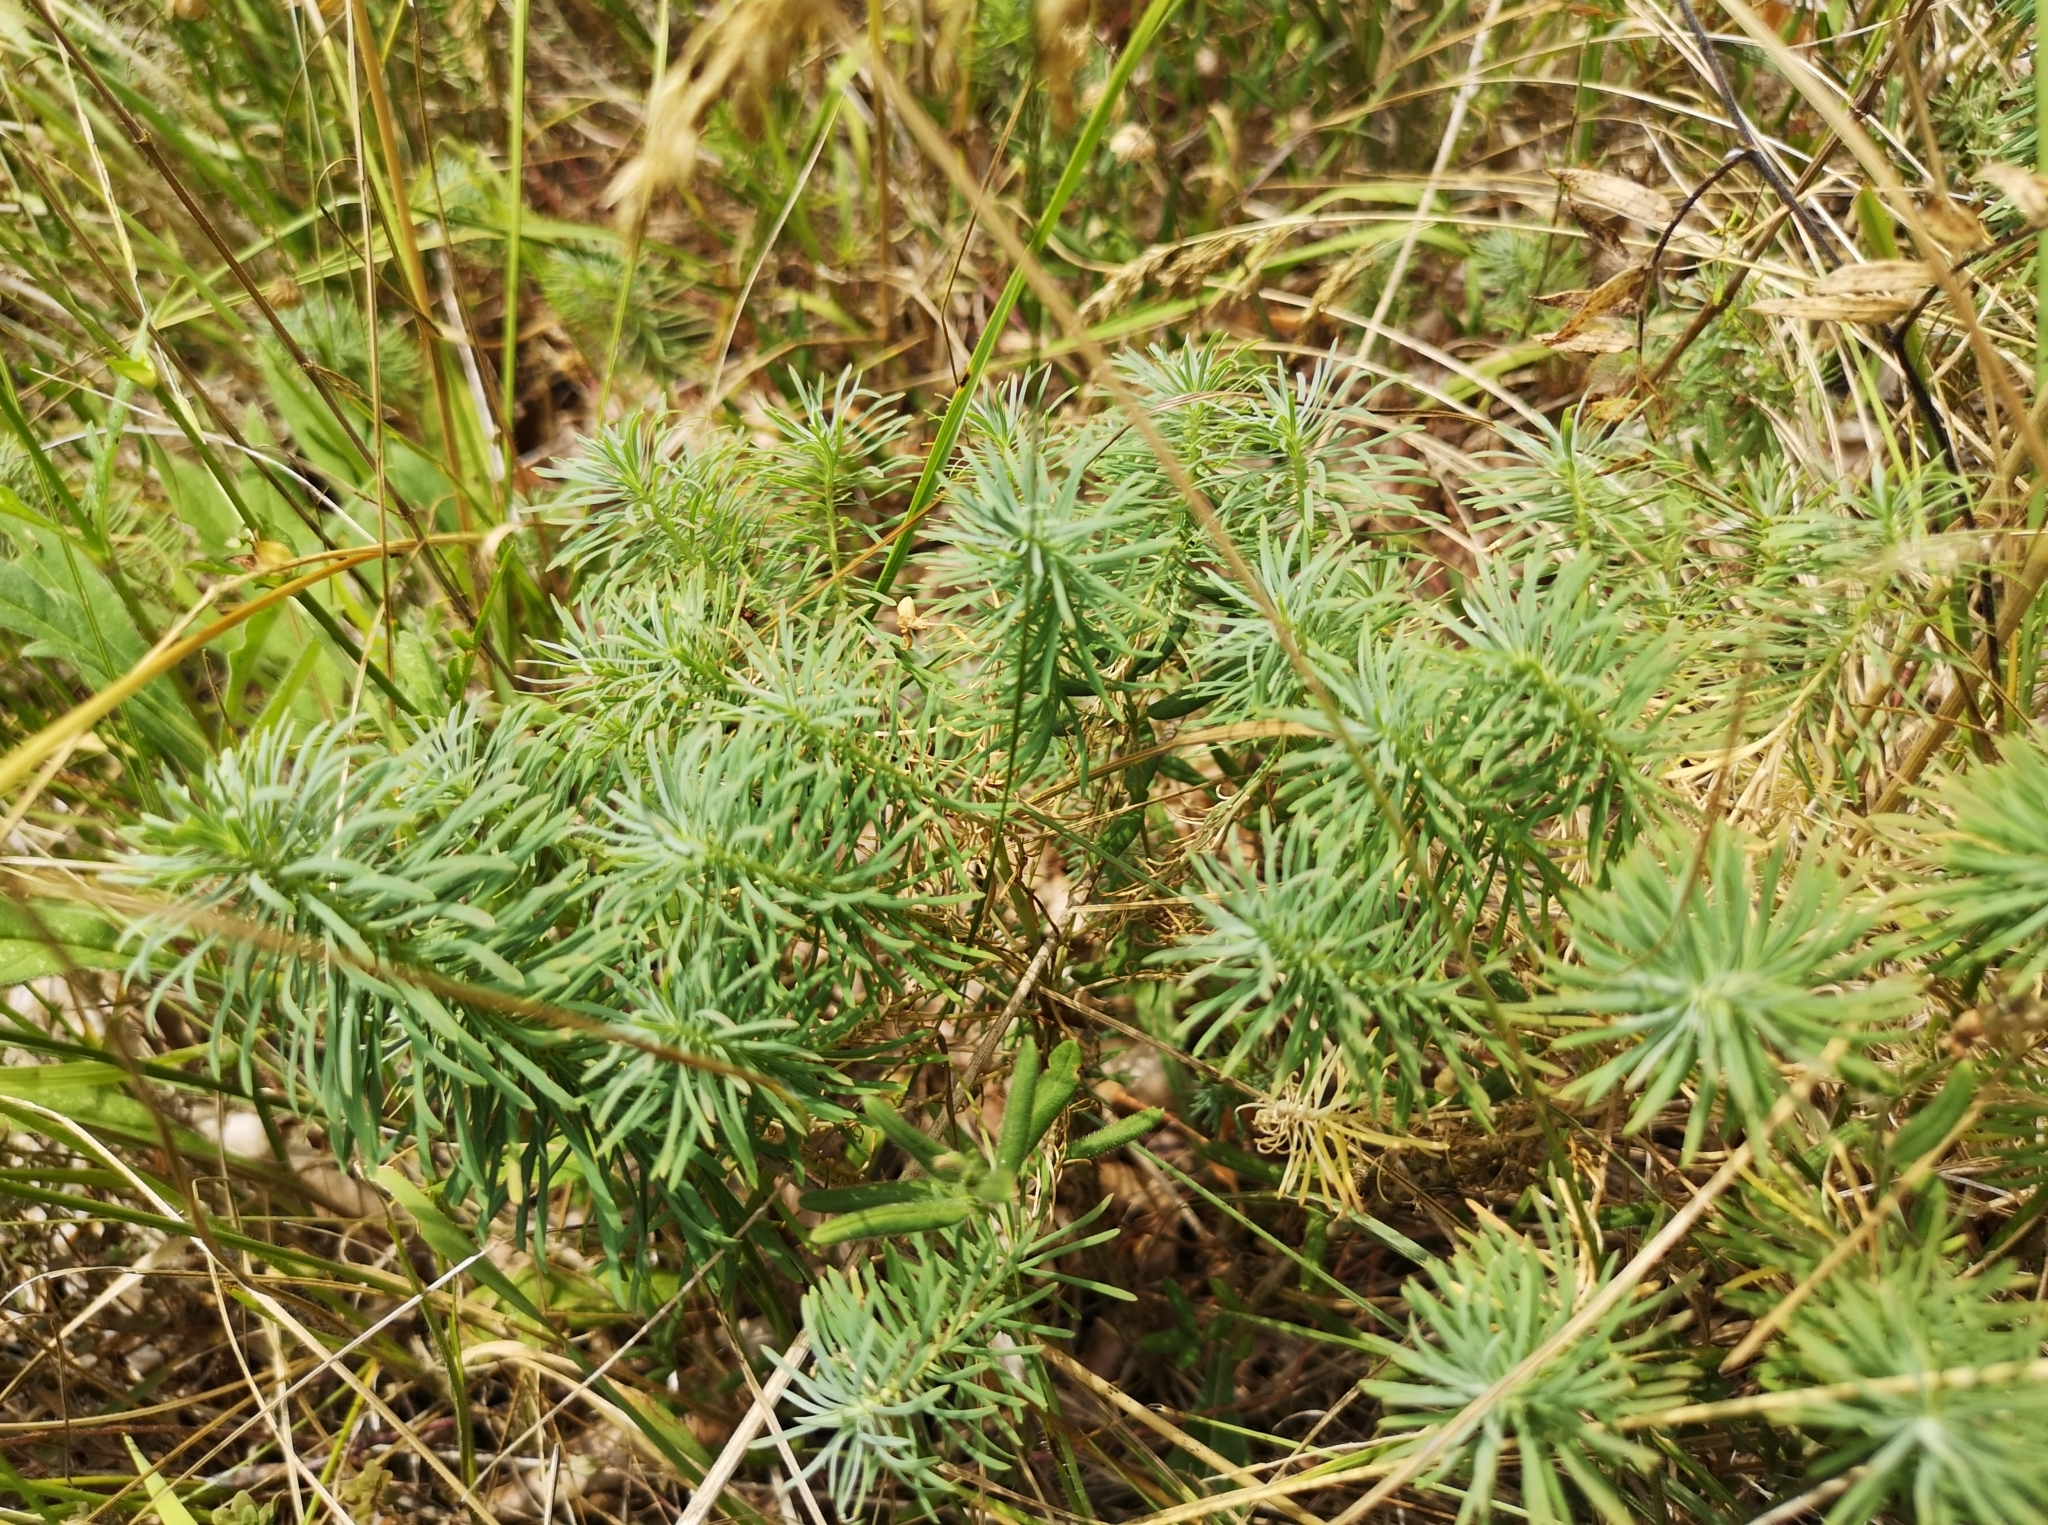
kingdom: Plantae
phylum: Tracheophyta
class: Magnoliopsida
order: Malpighiales
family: Euphorbiaceae
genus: Euphorbia
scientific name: Euphorbia cyparissias
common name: Cypress spurge
